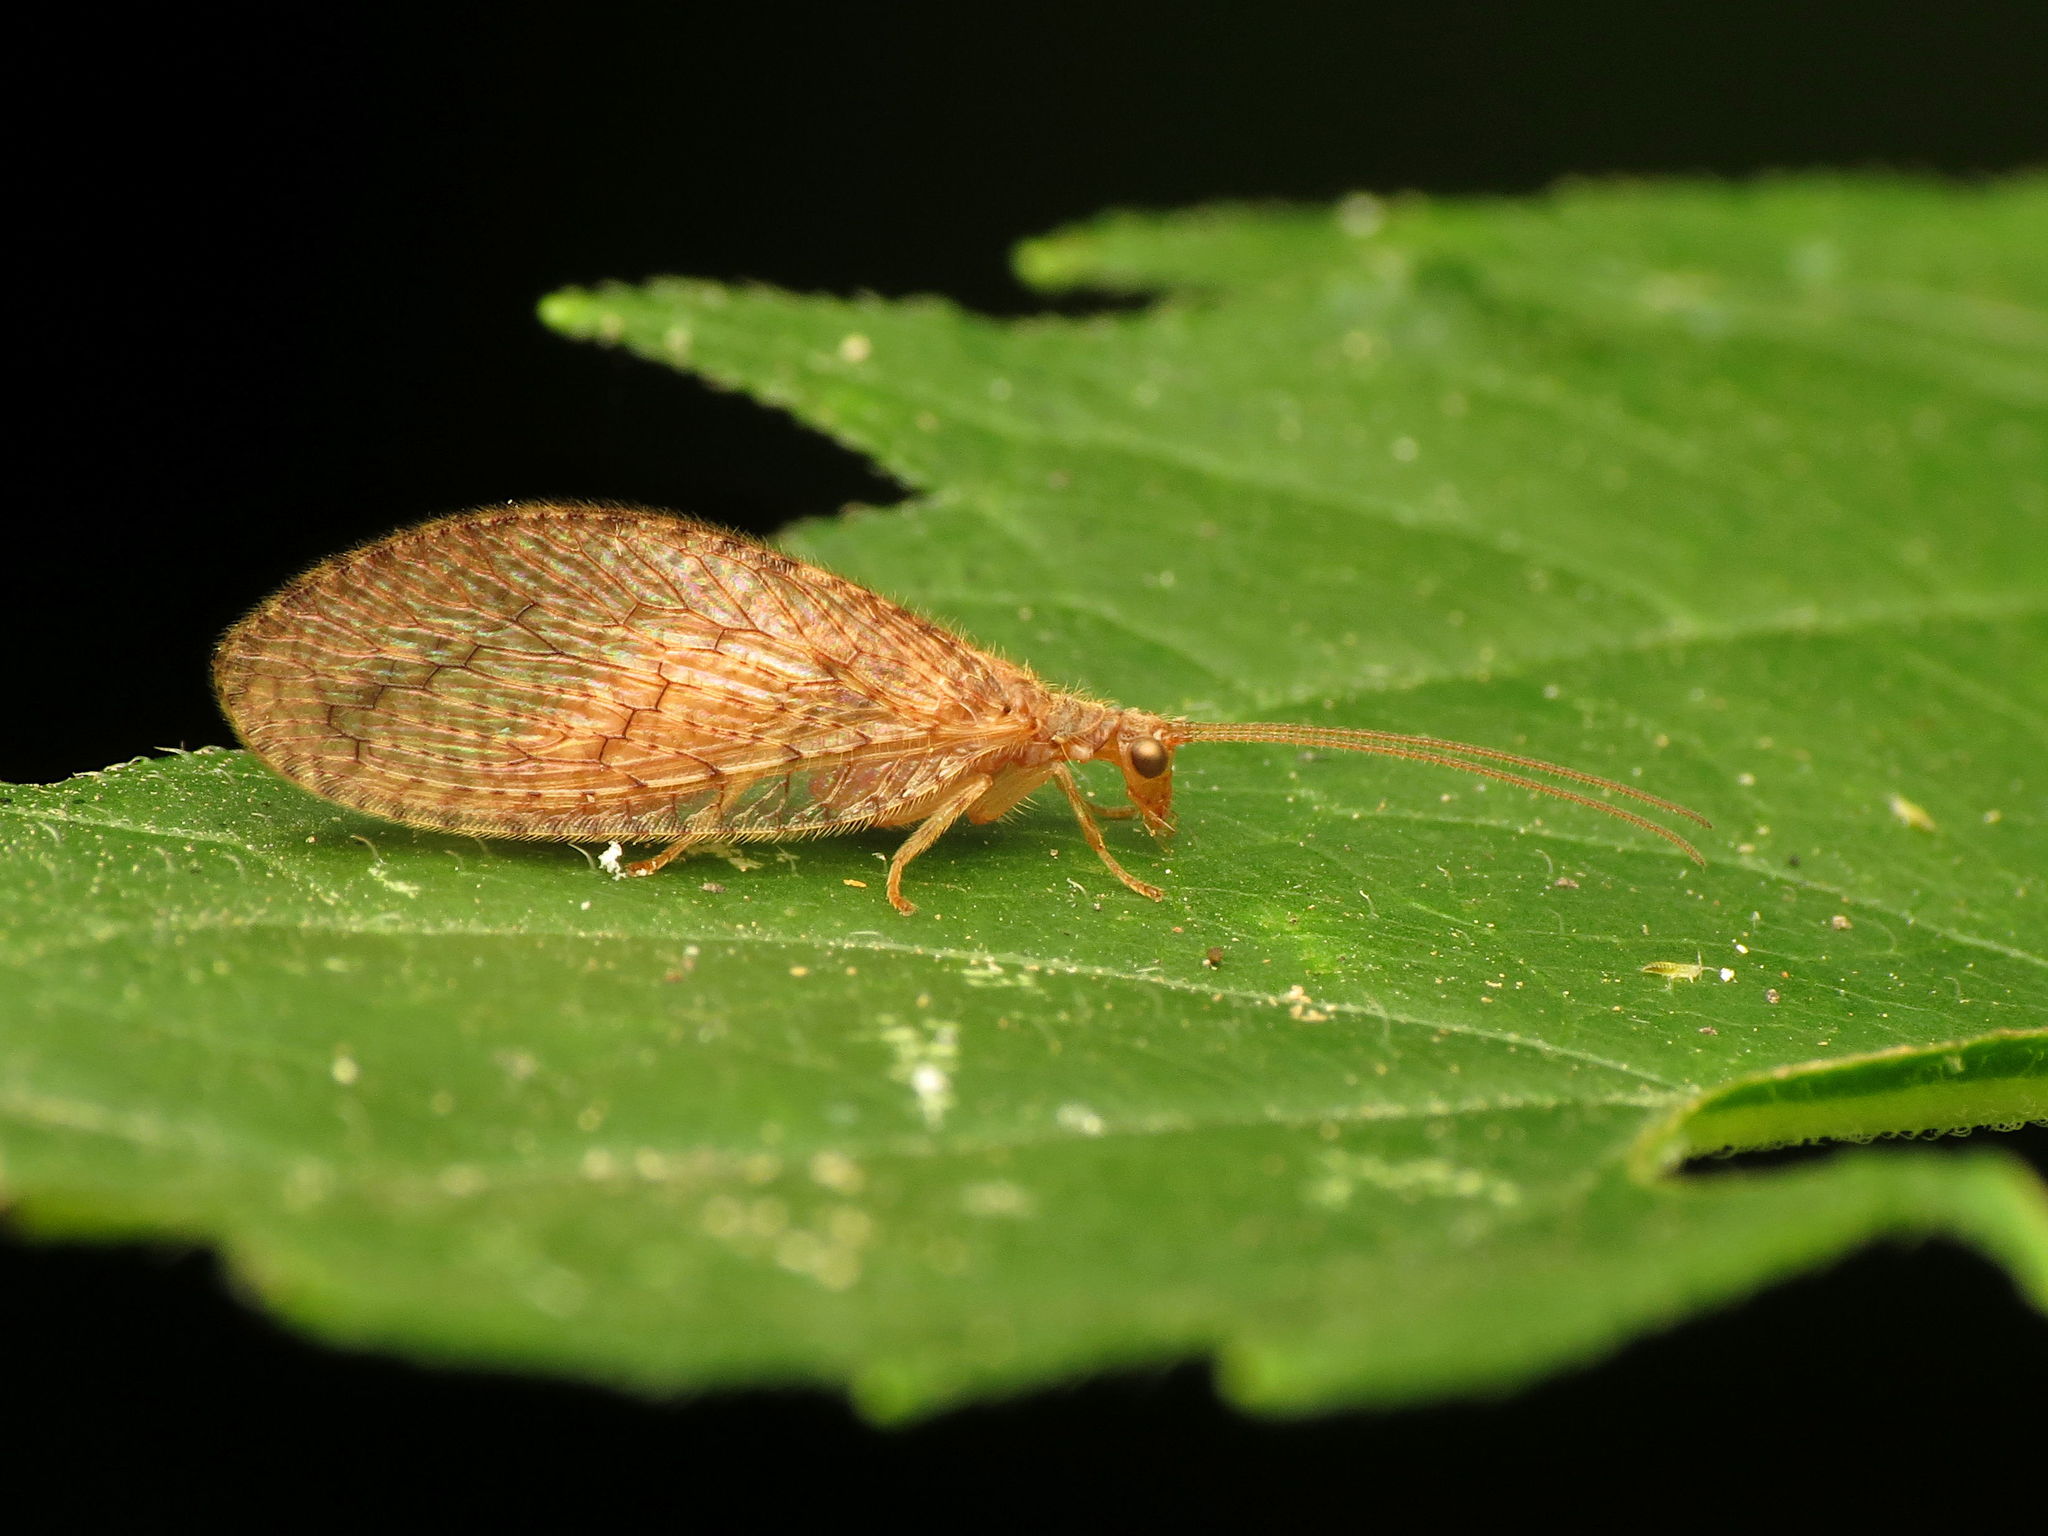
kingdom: Animalia
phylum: Arthropoda
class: Insecta
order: Neuroptera
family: Hemerobiidae
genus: Micromus
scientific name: Micromus posticus
